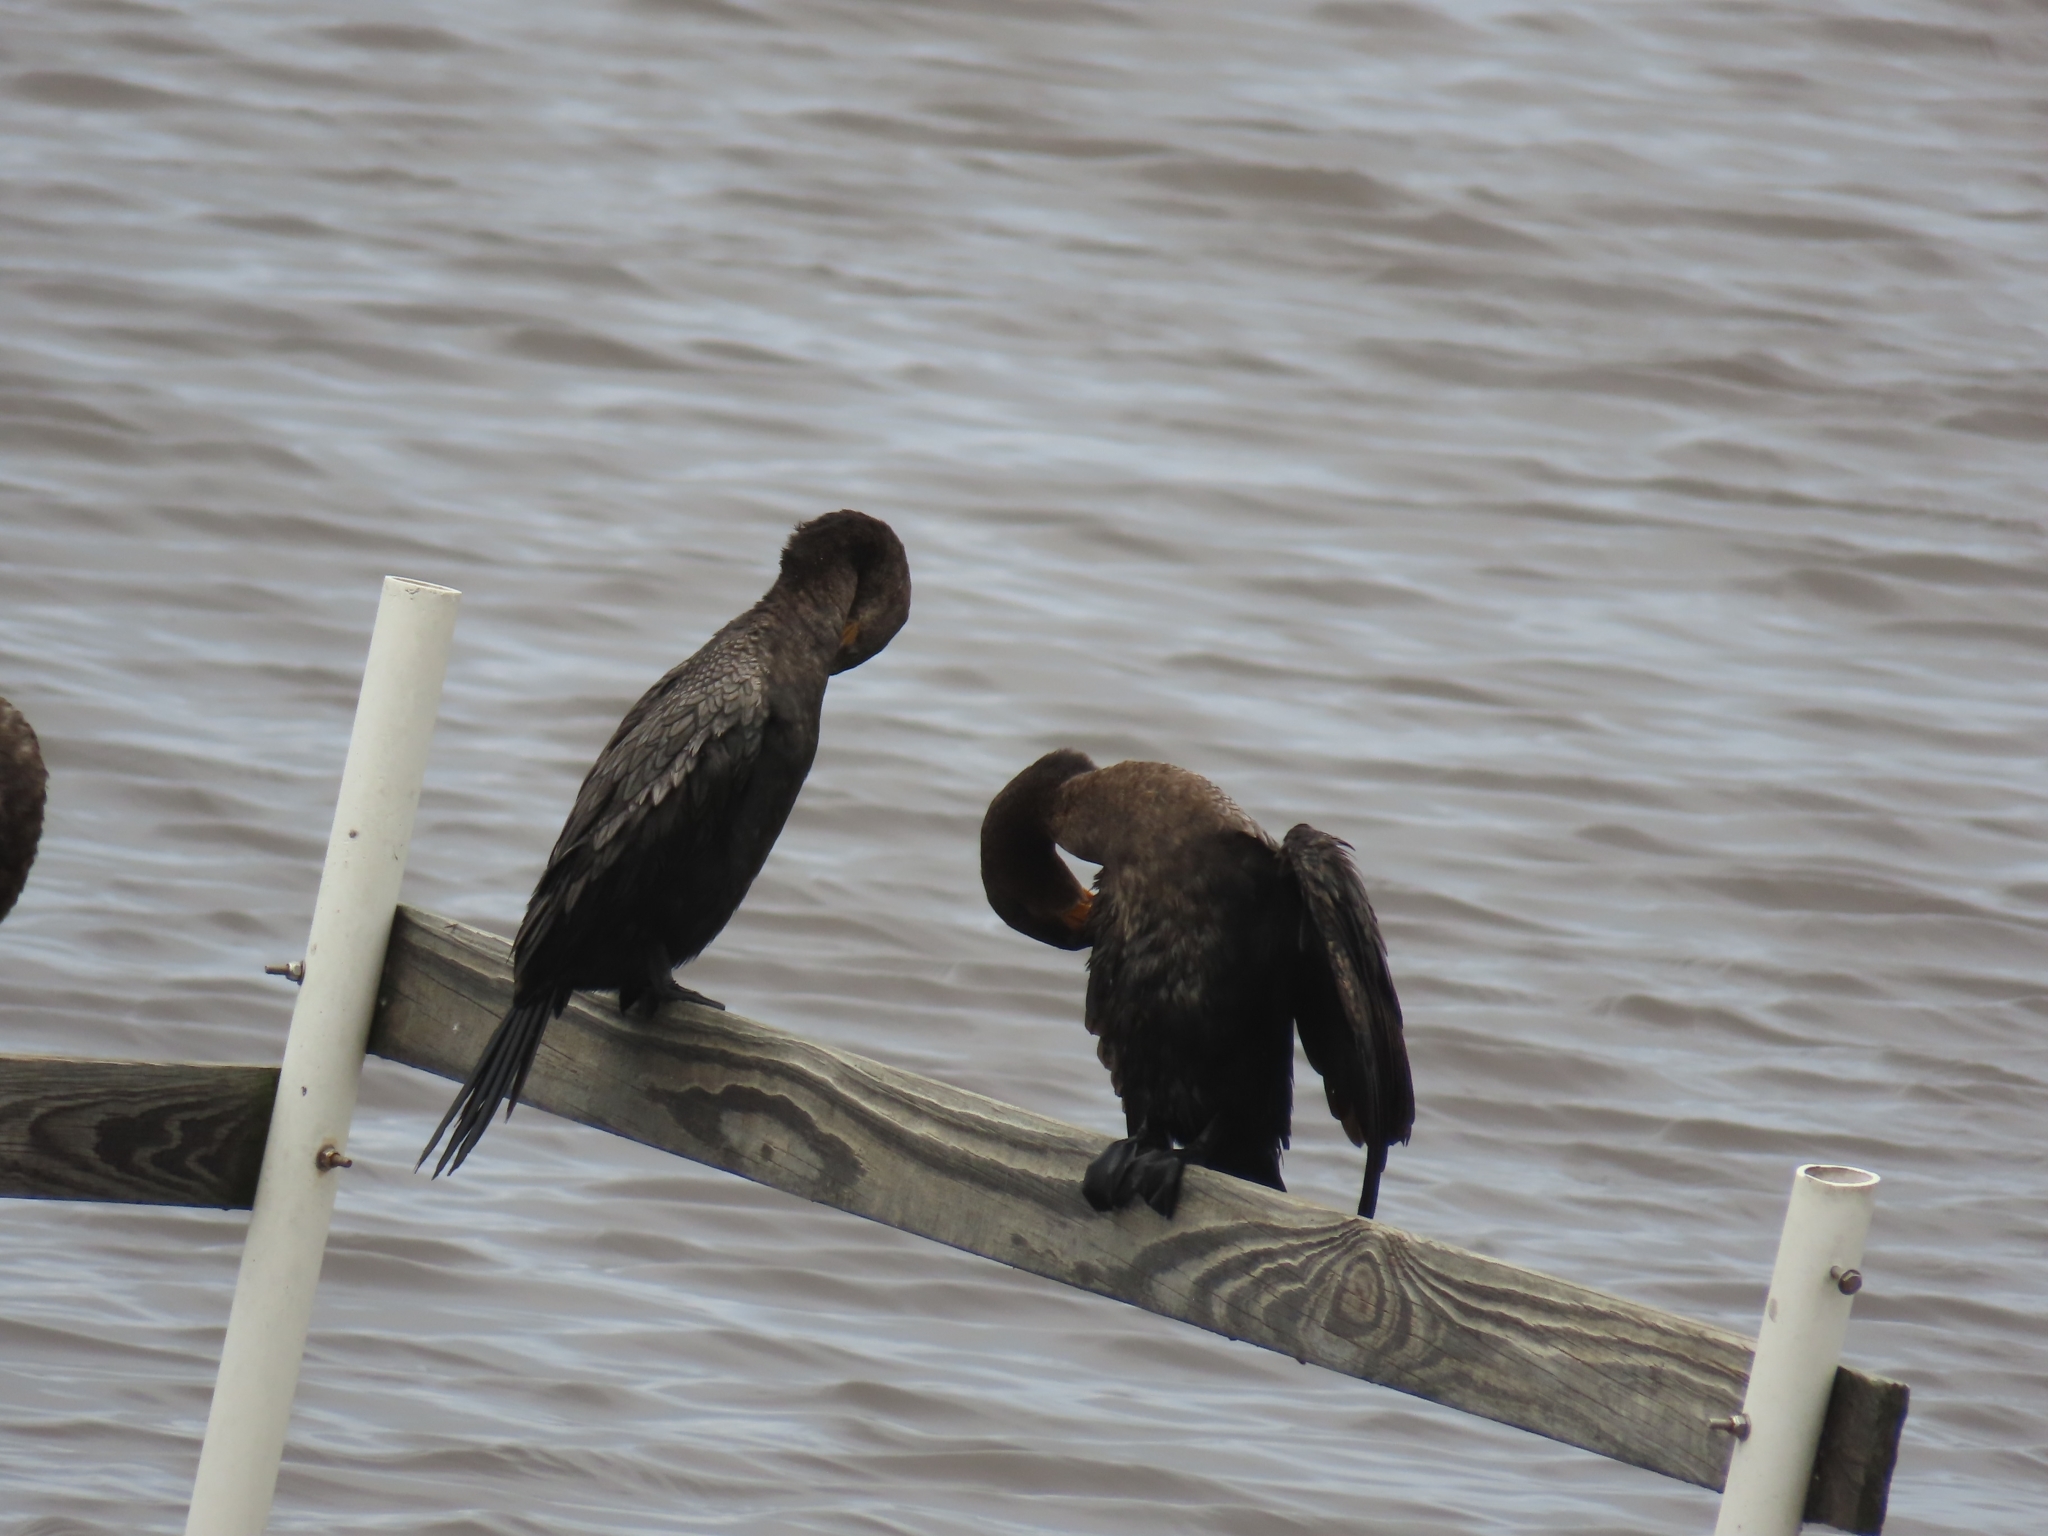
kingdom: Animalia
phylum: Chordata
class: Aves
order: Suliformes
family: Phalacrocoracidae
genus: Phalacrocorax
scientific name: Phalacrocorax brasilianus
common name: Neotropic cormorant
